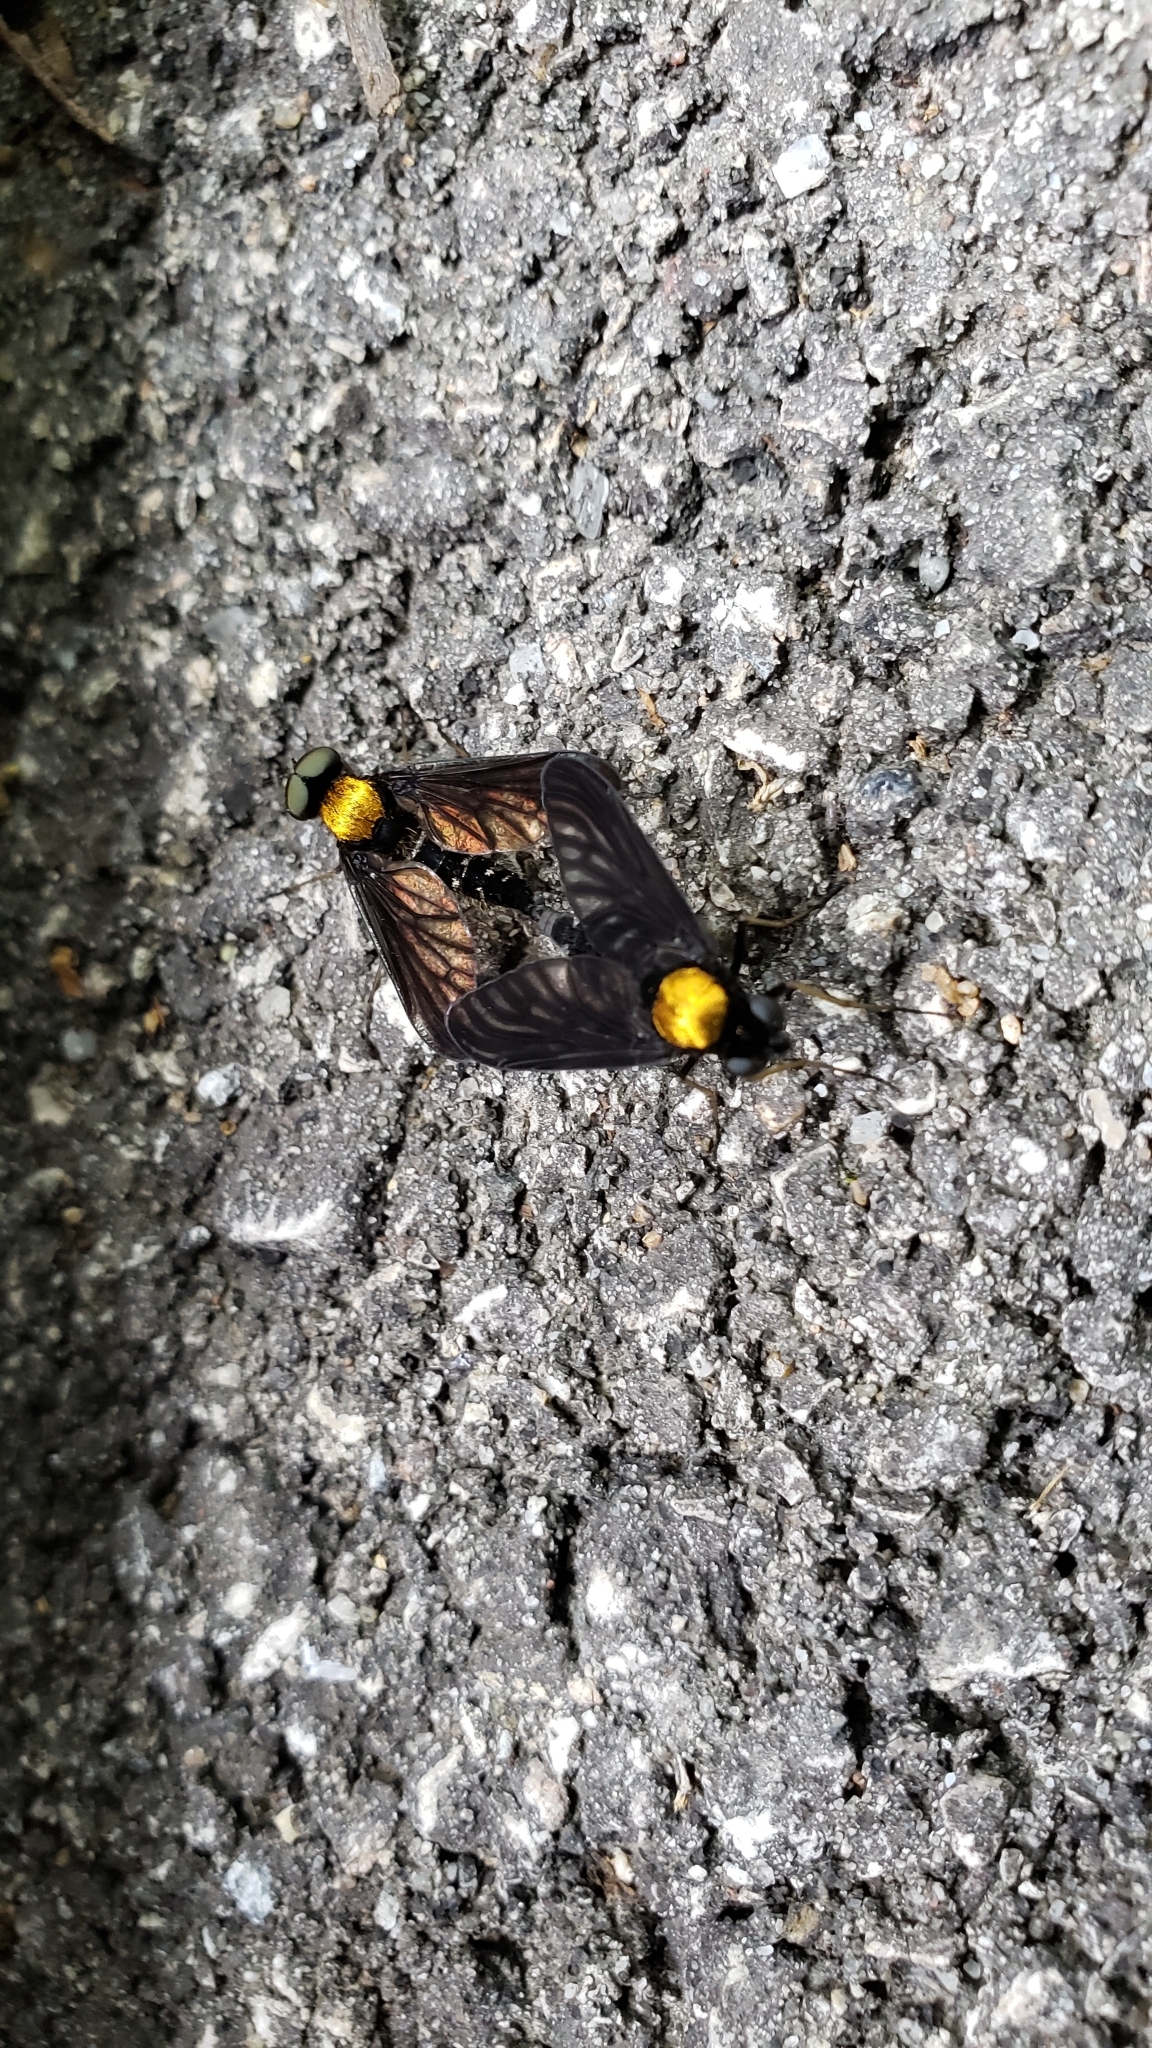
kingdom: Animalia
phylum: Arthropoda
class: Insecta
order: Diptera
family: Rhagionidae
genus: Chrysopilus
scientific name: Chrysopilus thoracicus
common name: Golden-backed snipe fly
